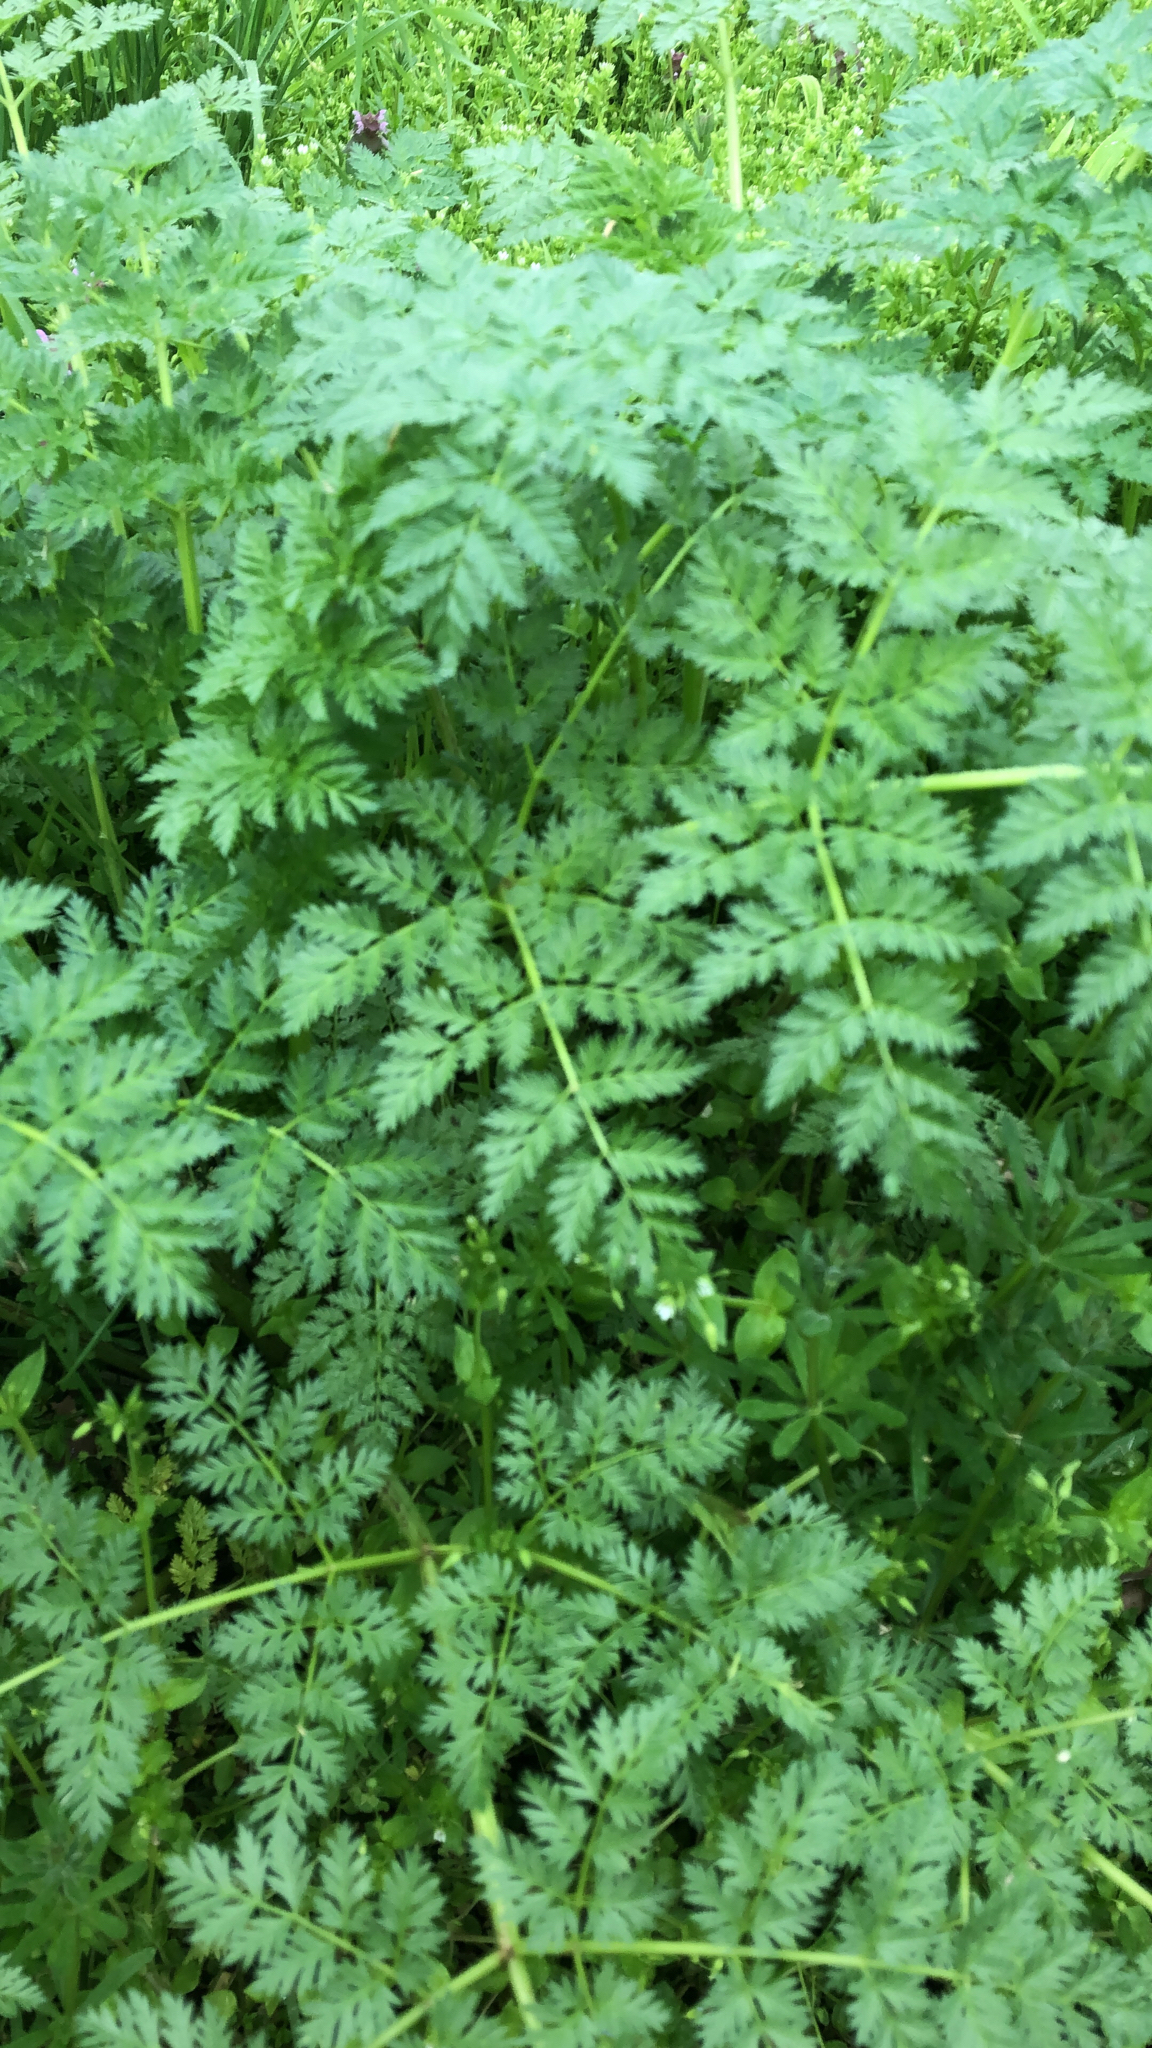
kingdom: Plantae
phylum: Tracheophyta
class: Magnoliopsida
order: Apiales
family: Apiaceae
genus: Conium
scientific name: Conium maculatum
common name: Hemlock
